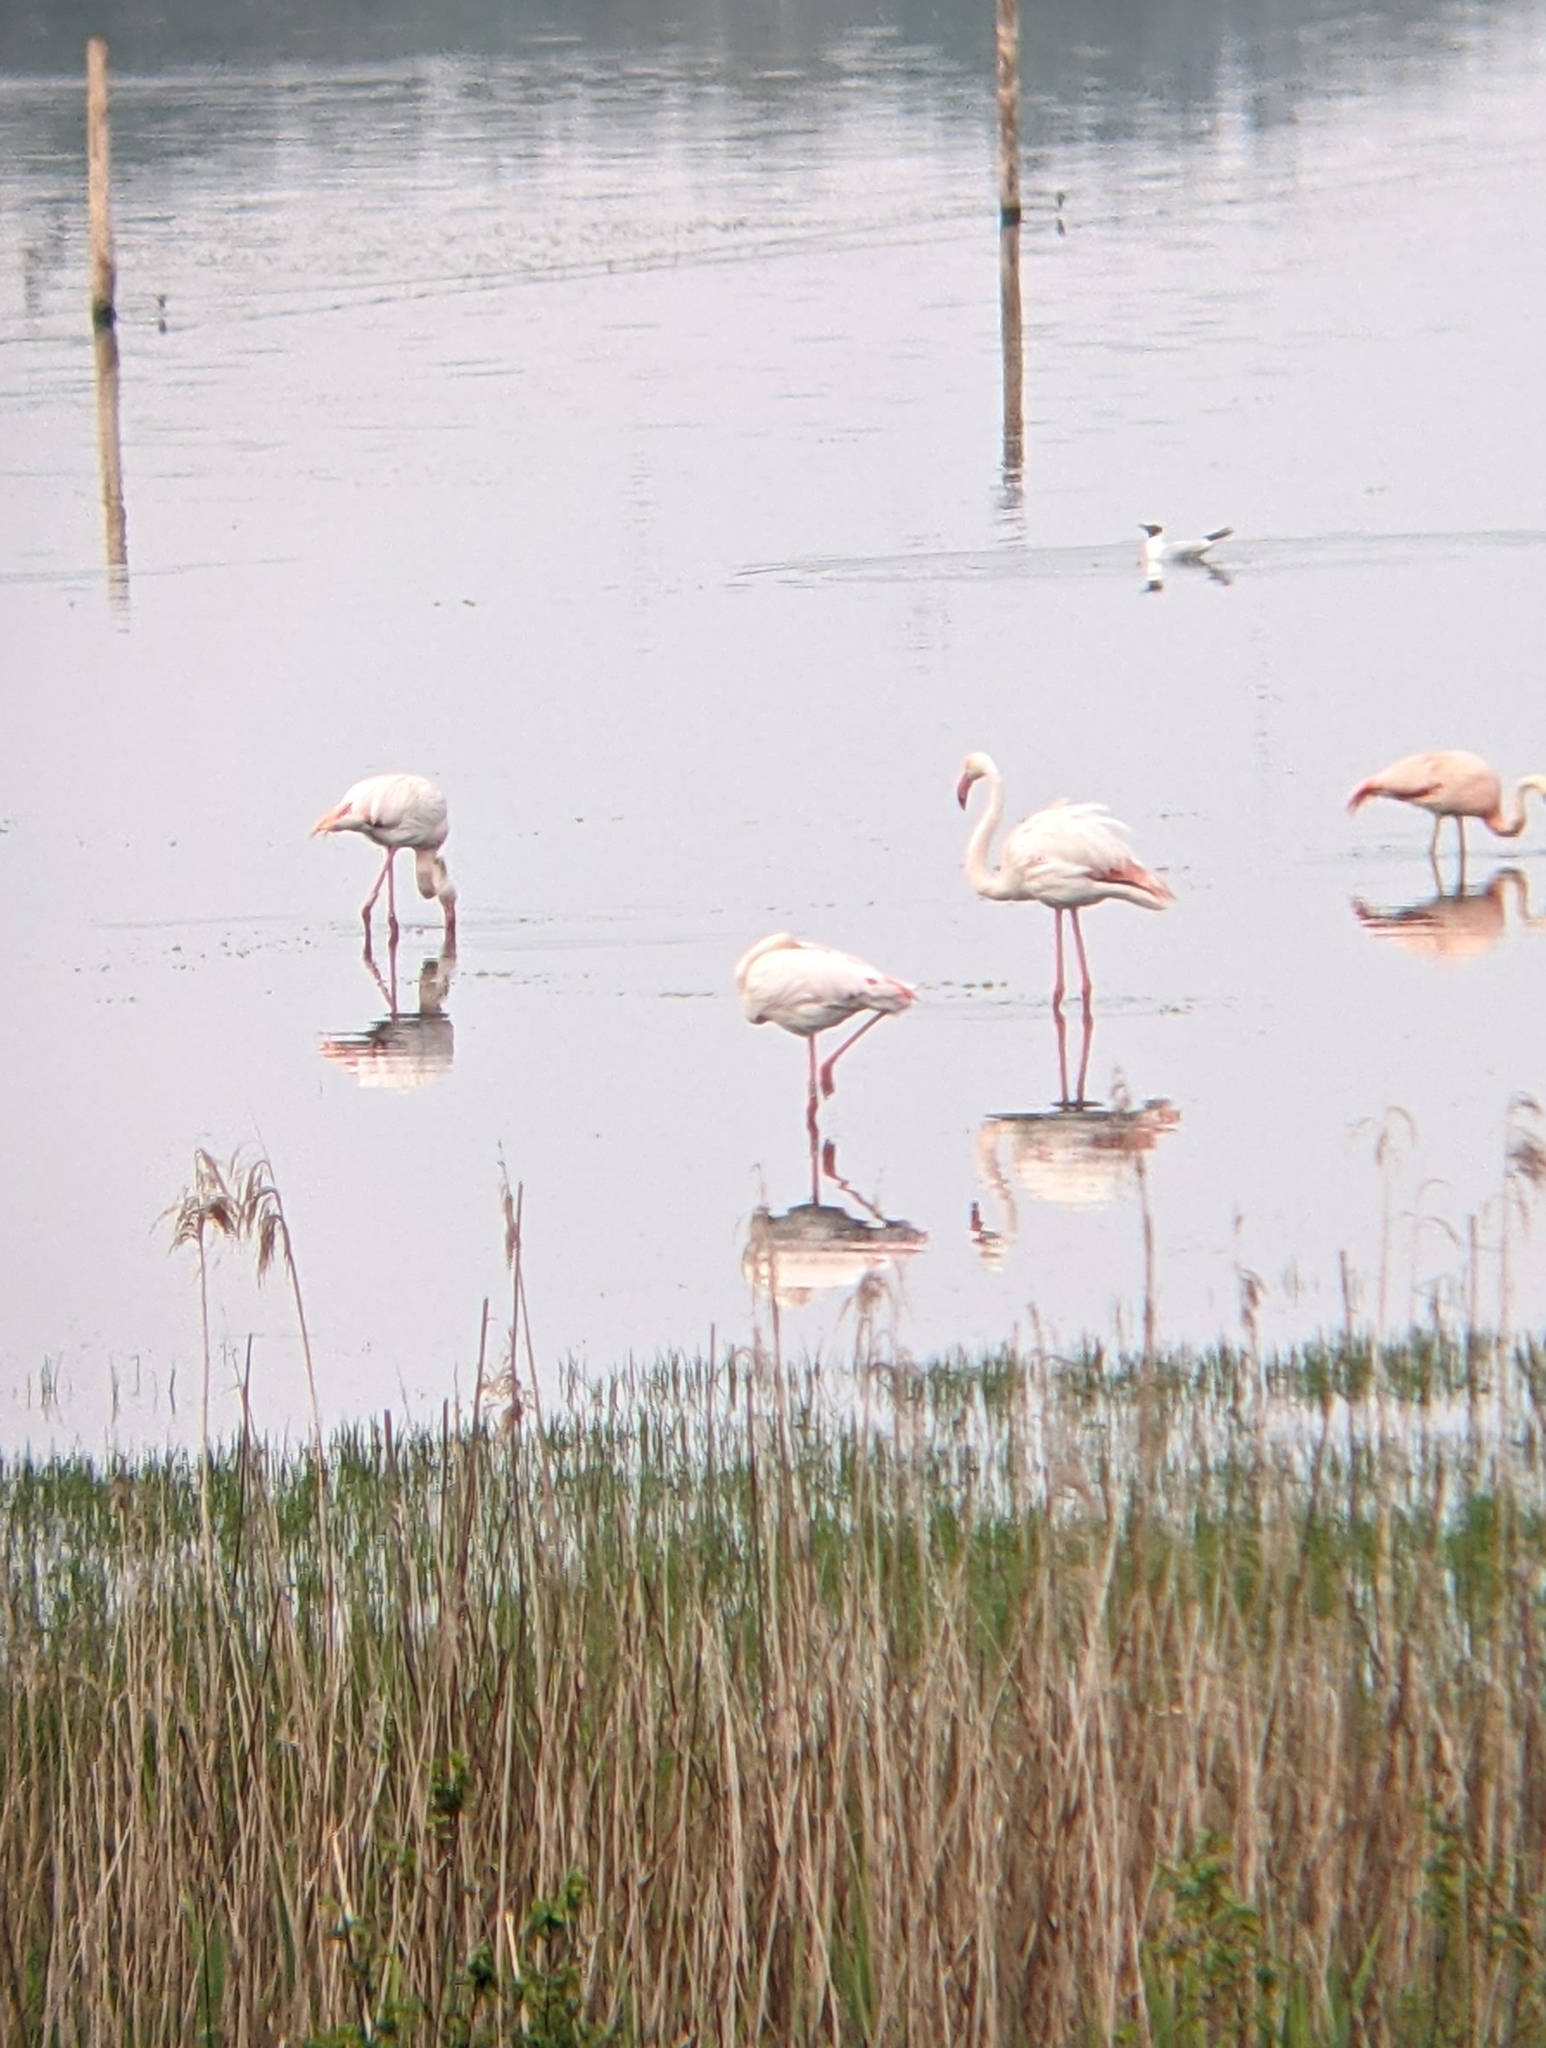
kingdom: Animalia
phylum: Chordata
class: Aves
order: Phoenicopteriformes
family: Phoenicopteridae
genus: Phoenicopterus
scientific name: Phoenicopterus roseus
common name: Greater flamingo
